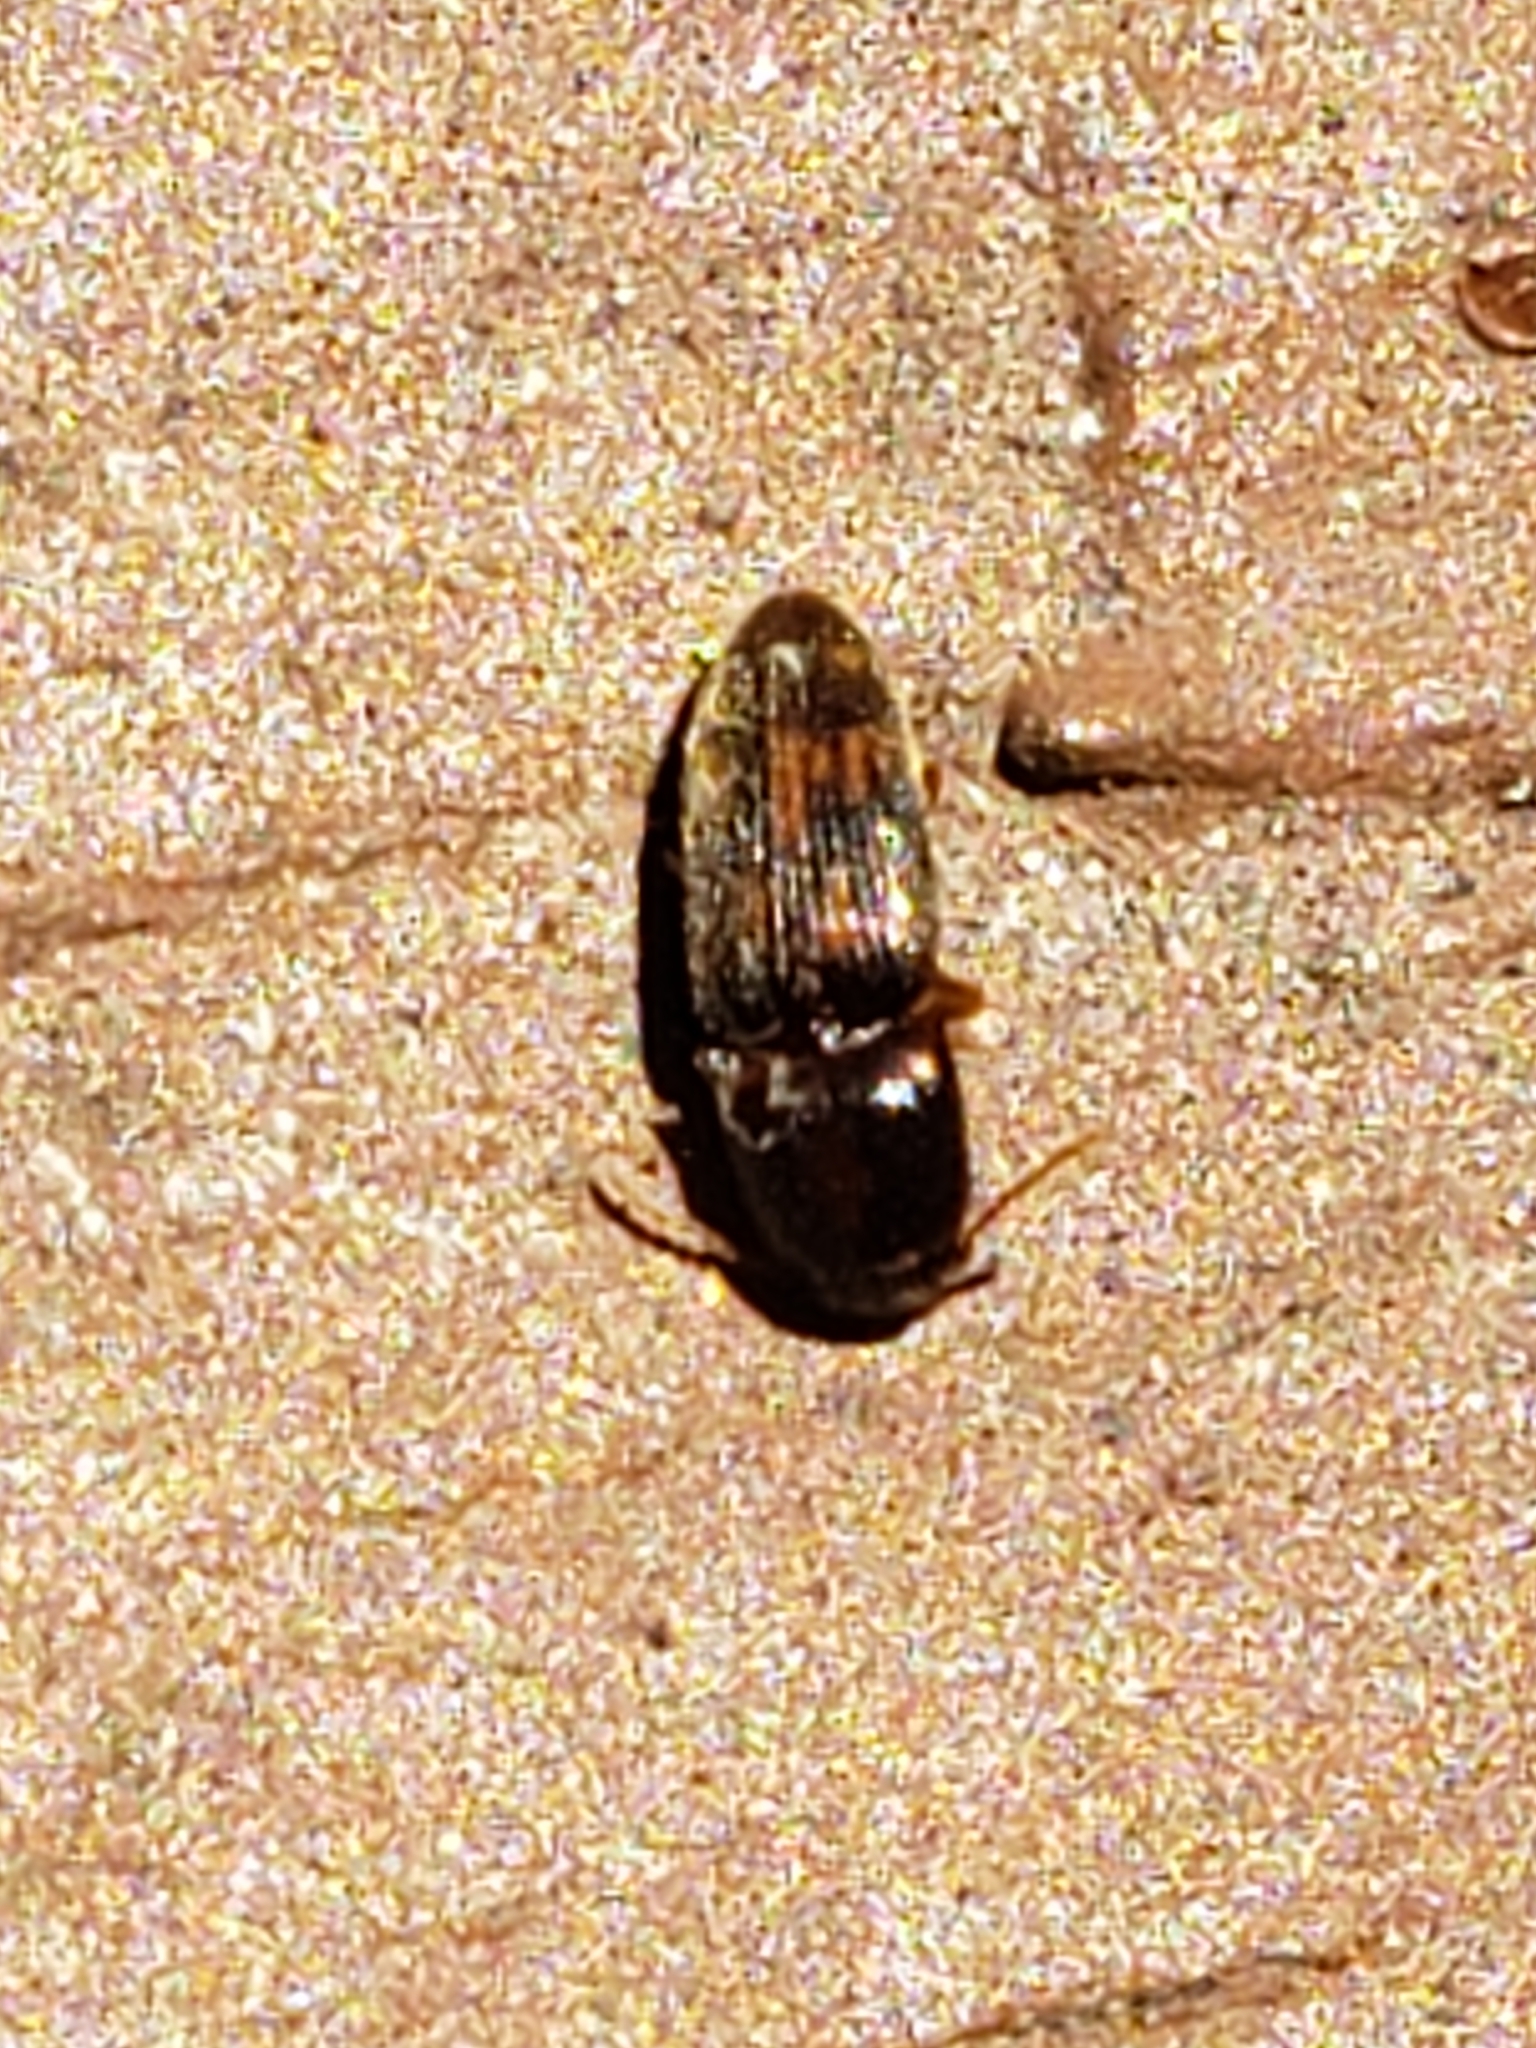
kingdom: Animalia
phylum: Arthropoda
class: Insecta
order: Coleoptera
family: Elateridae
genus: Monocrepidius
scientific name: Monocrepidius bellus
